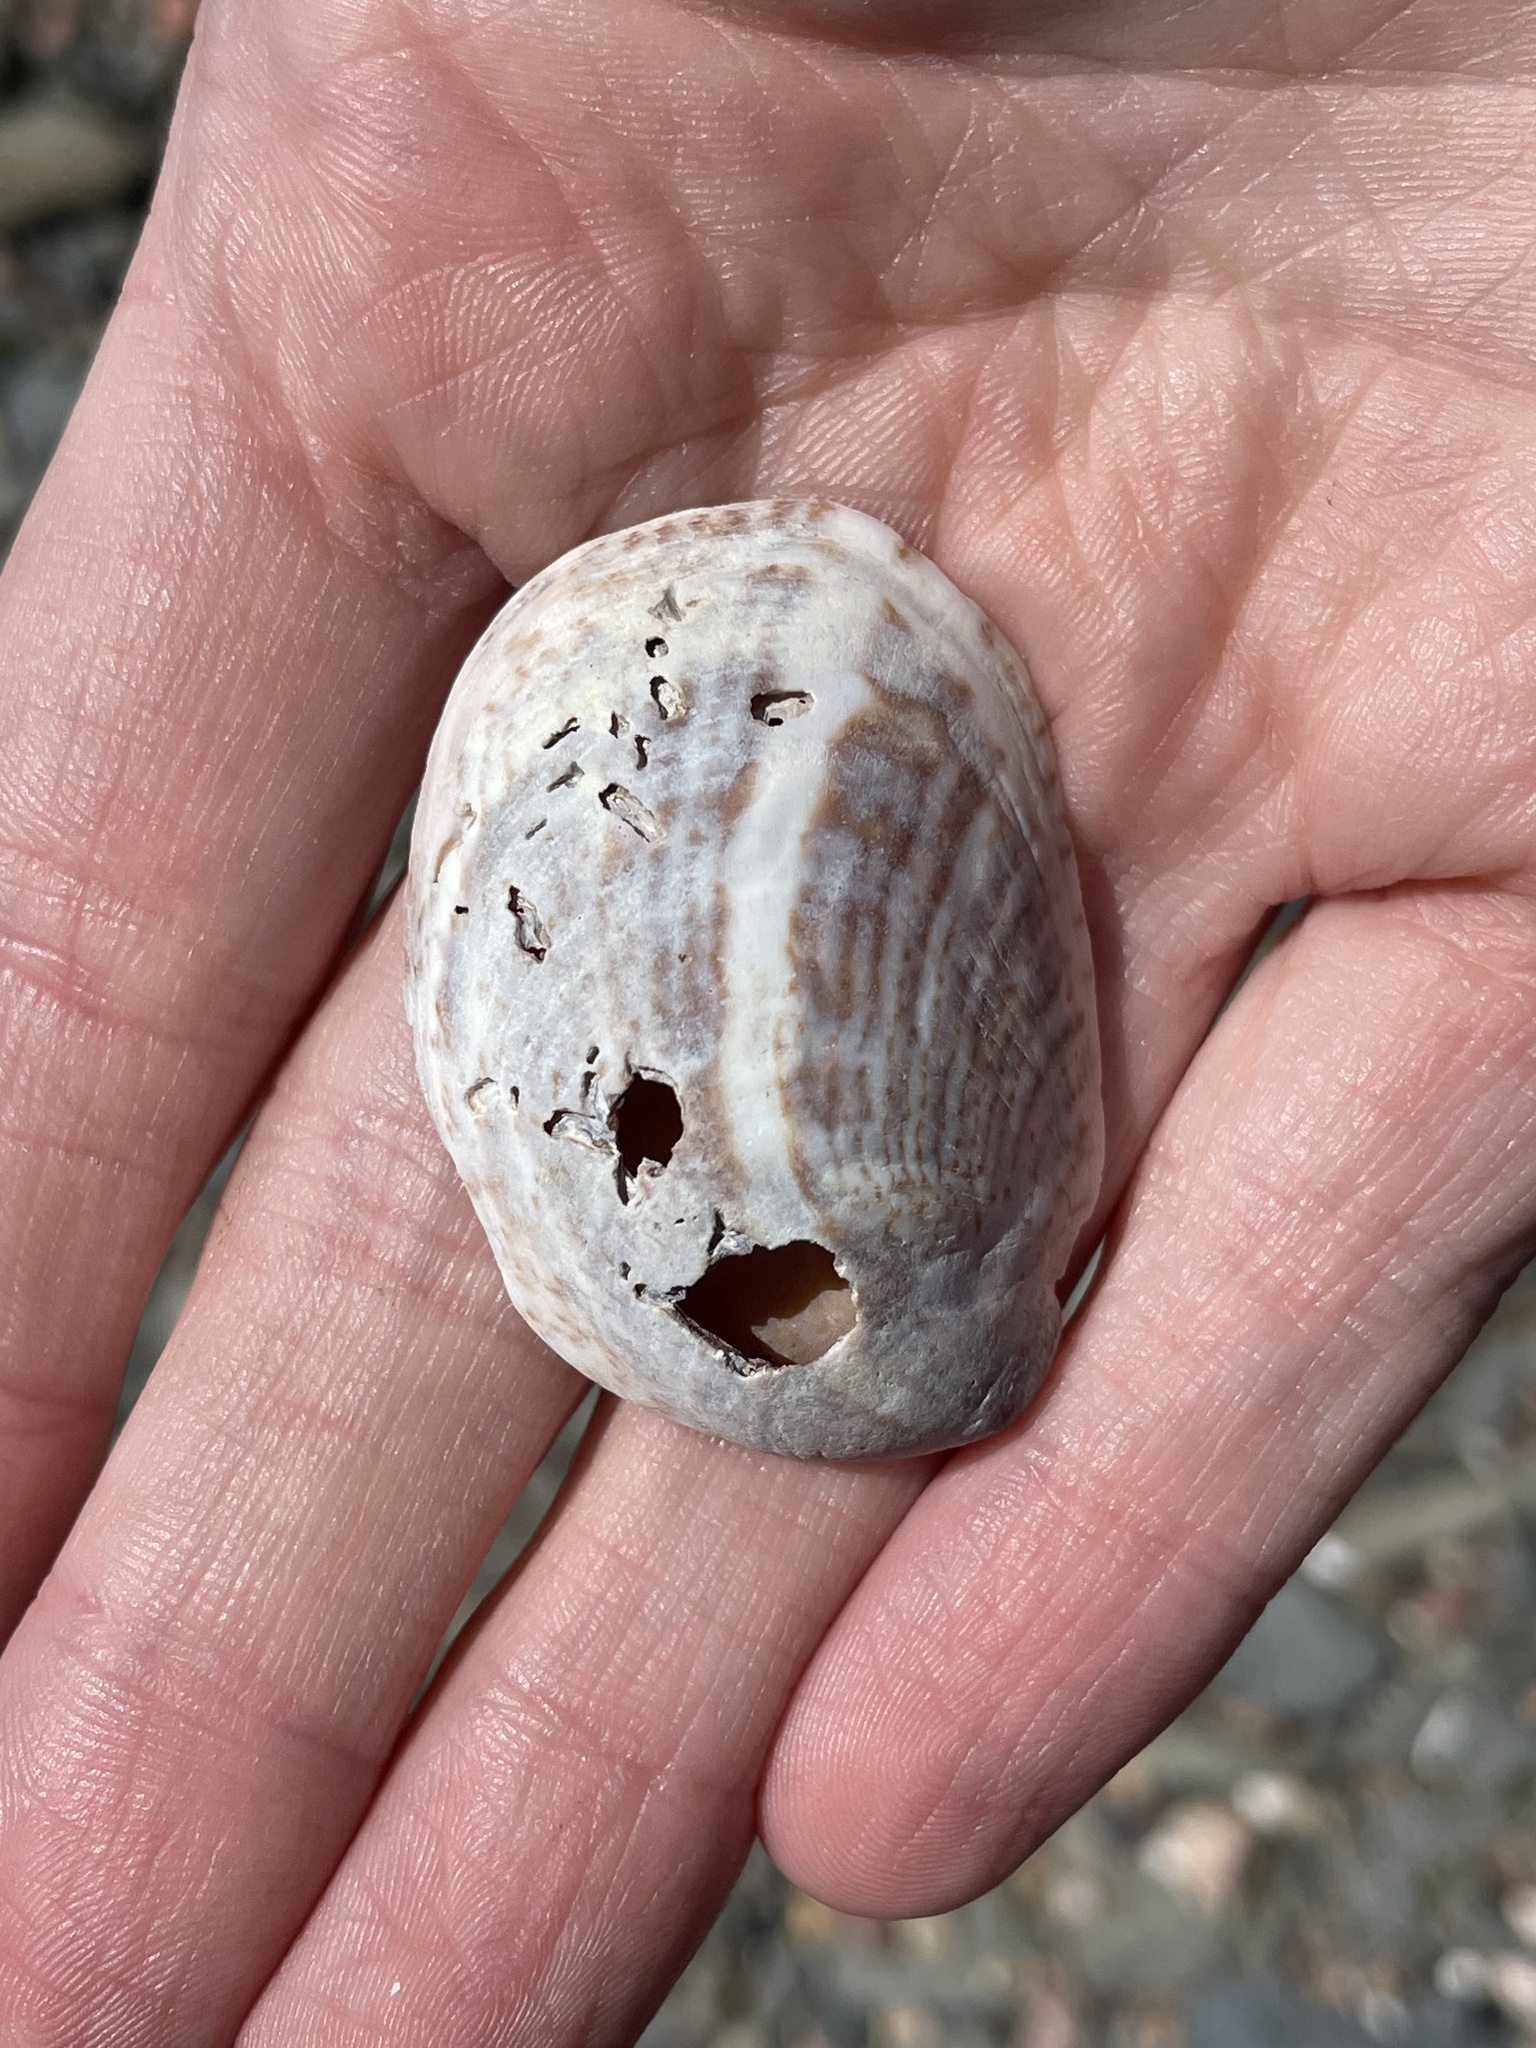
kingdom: Animalia
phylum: Mollusca
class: Gastropoda
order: Littorinimorpha
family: Calyptraeidae
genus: Crepidula
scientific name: Crepidula fornicata
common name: Slipper limpet
